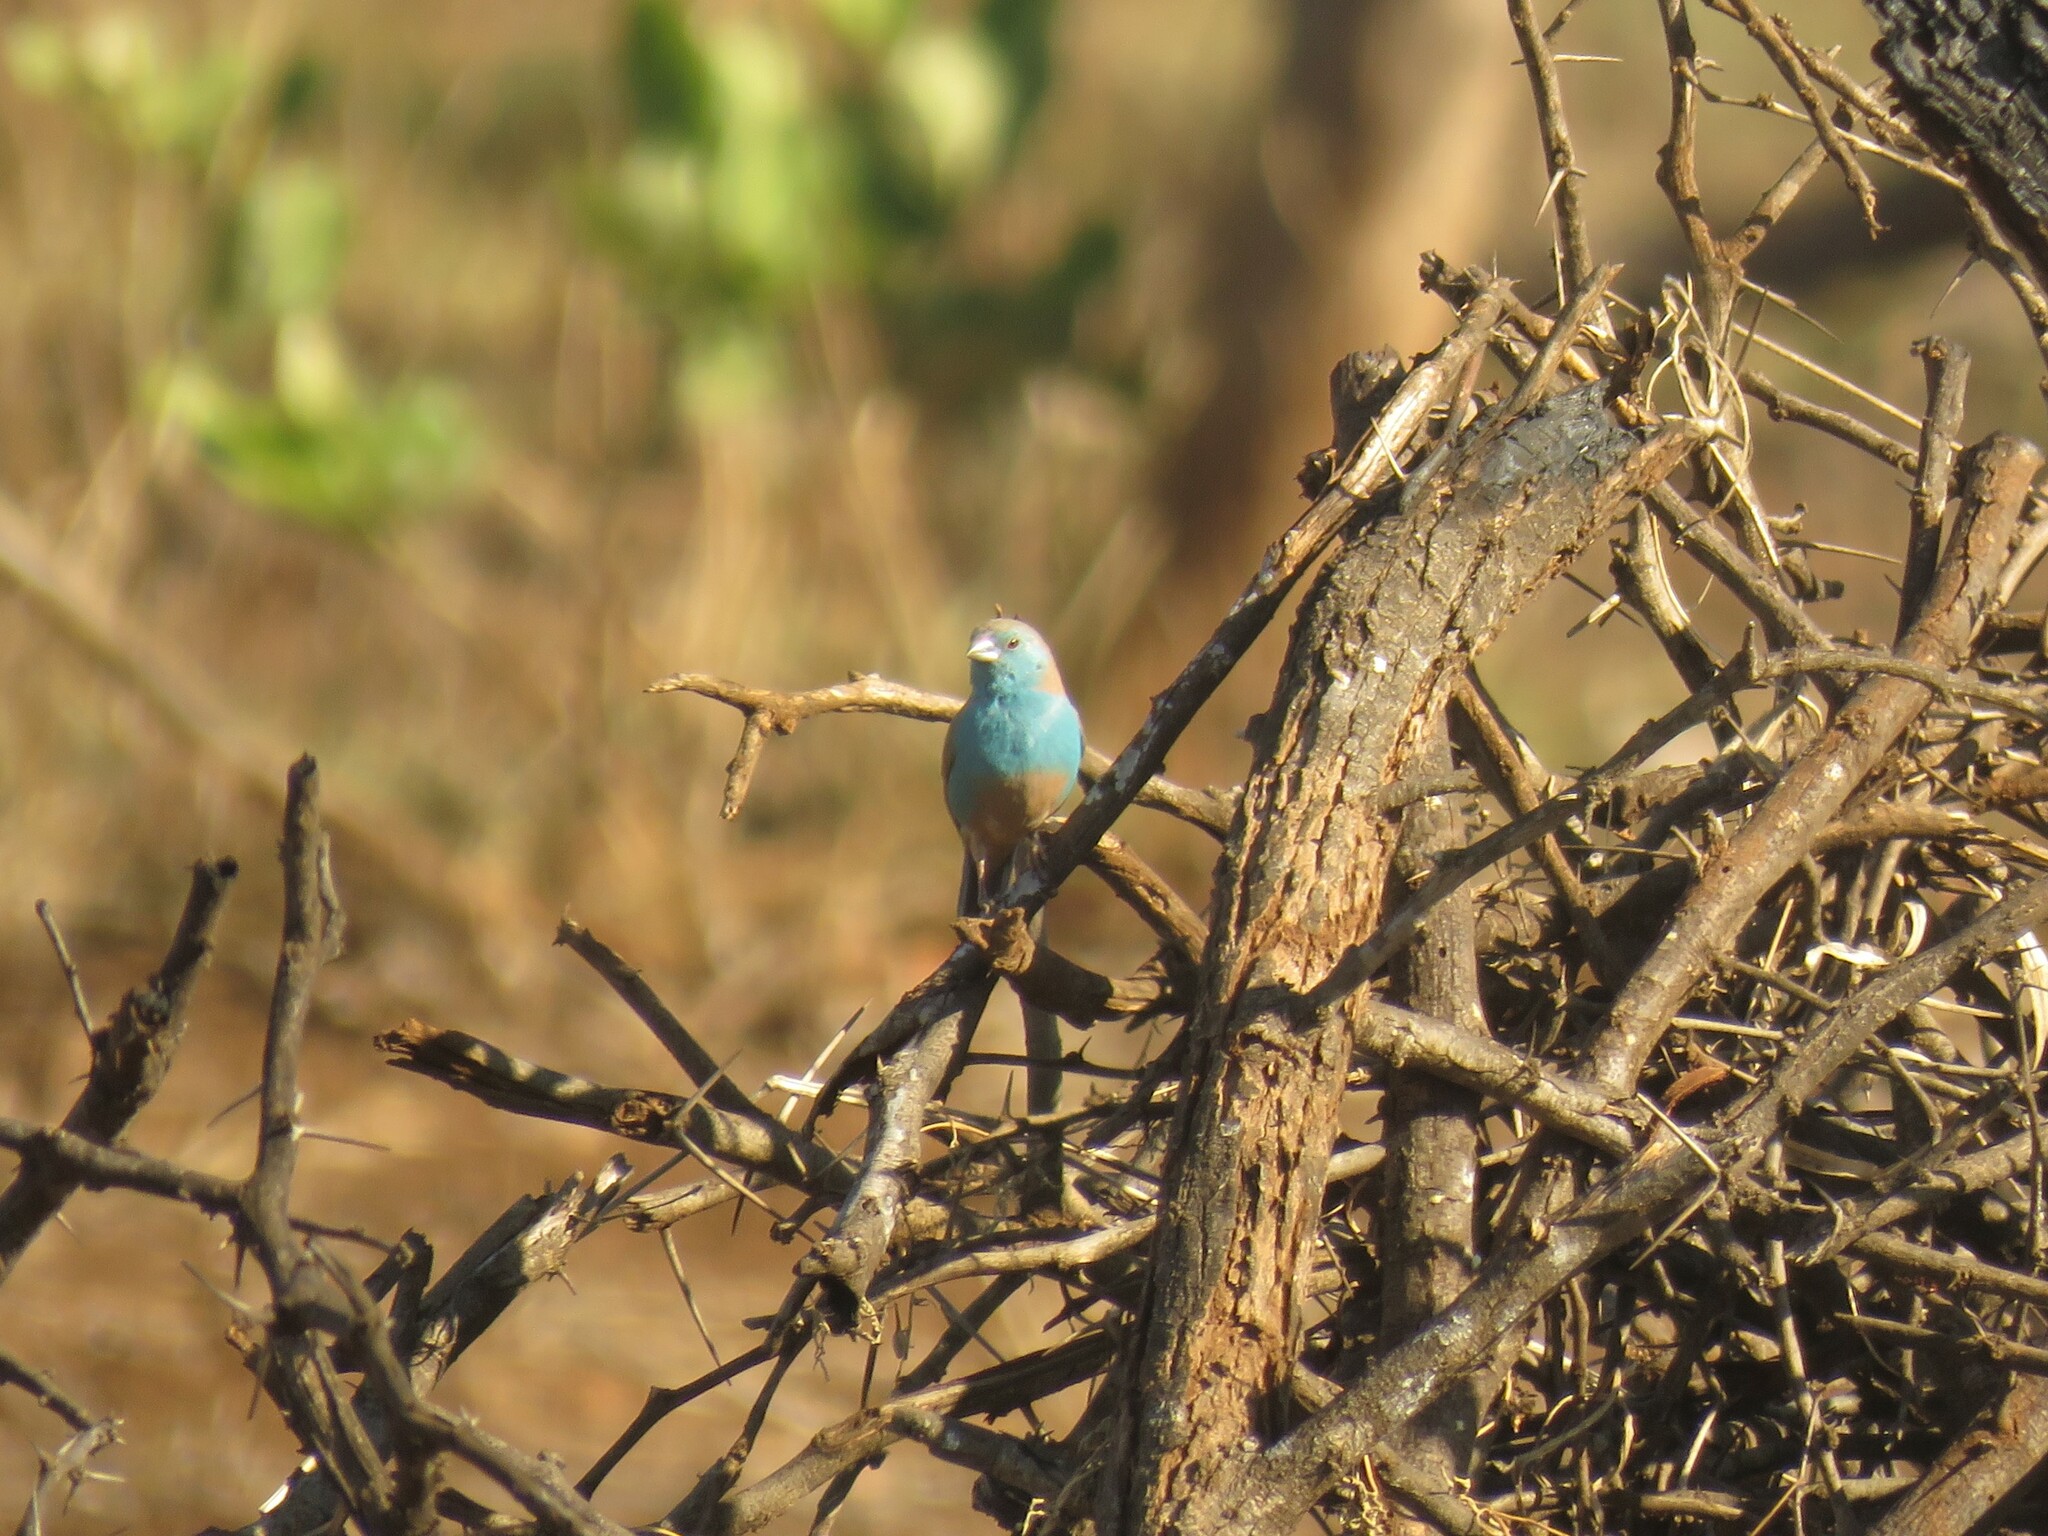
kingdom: Animalia
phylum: Chordata
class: Aves
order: Passeriformes
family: Estrildidae
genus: Uraeginthus
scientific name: Uraeginthus angolensis
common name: Blue waxbill
